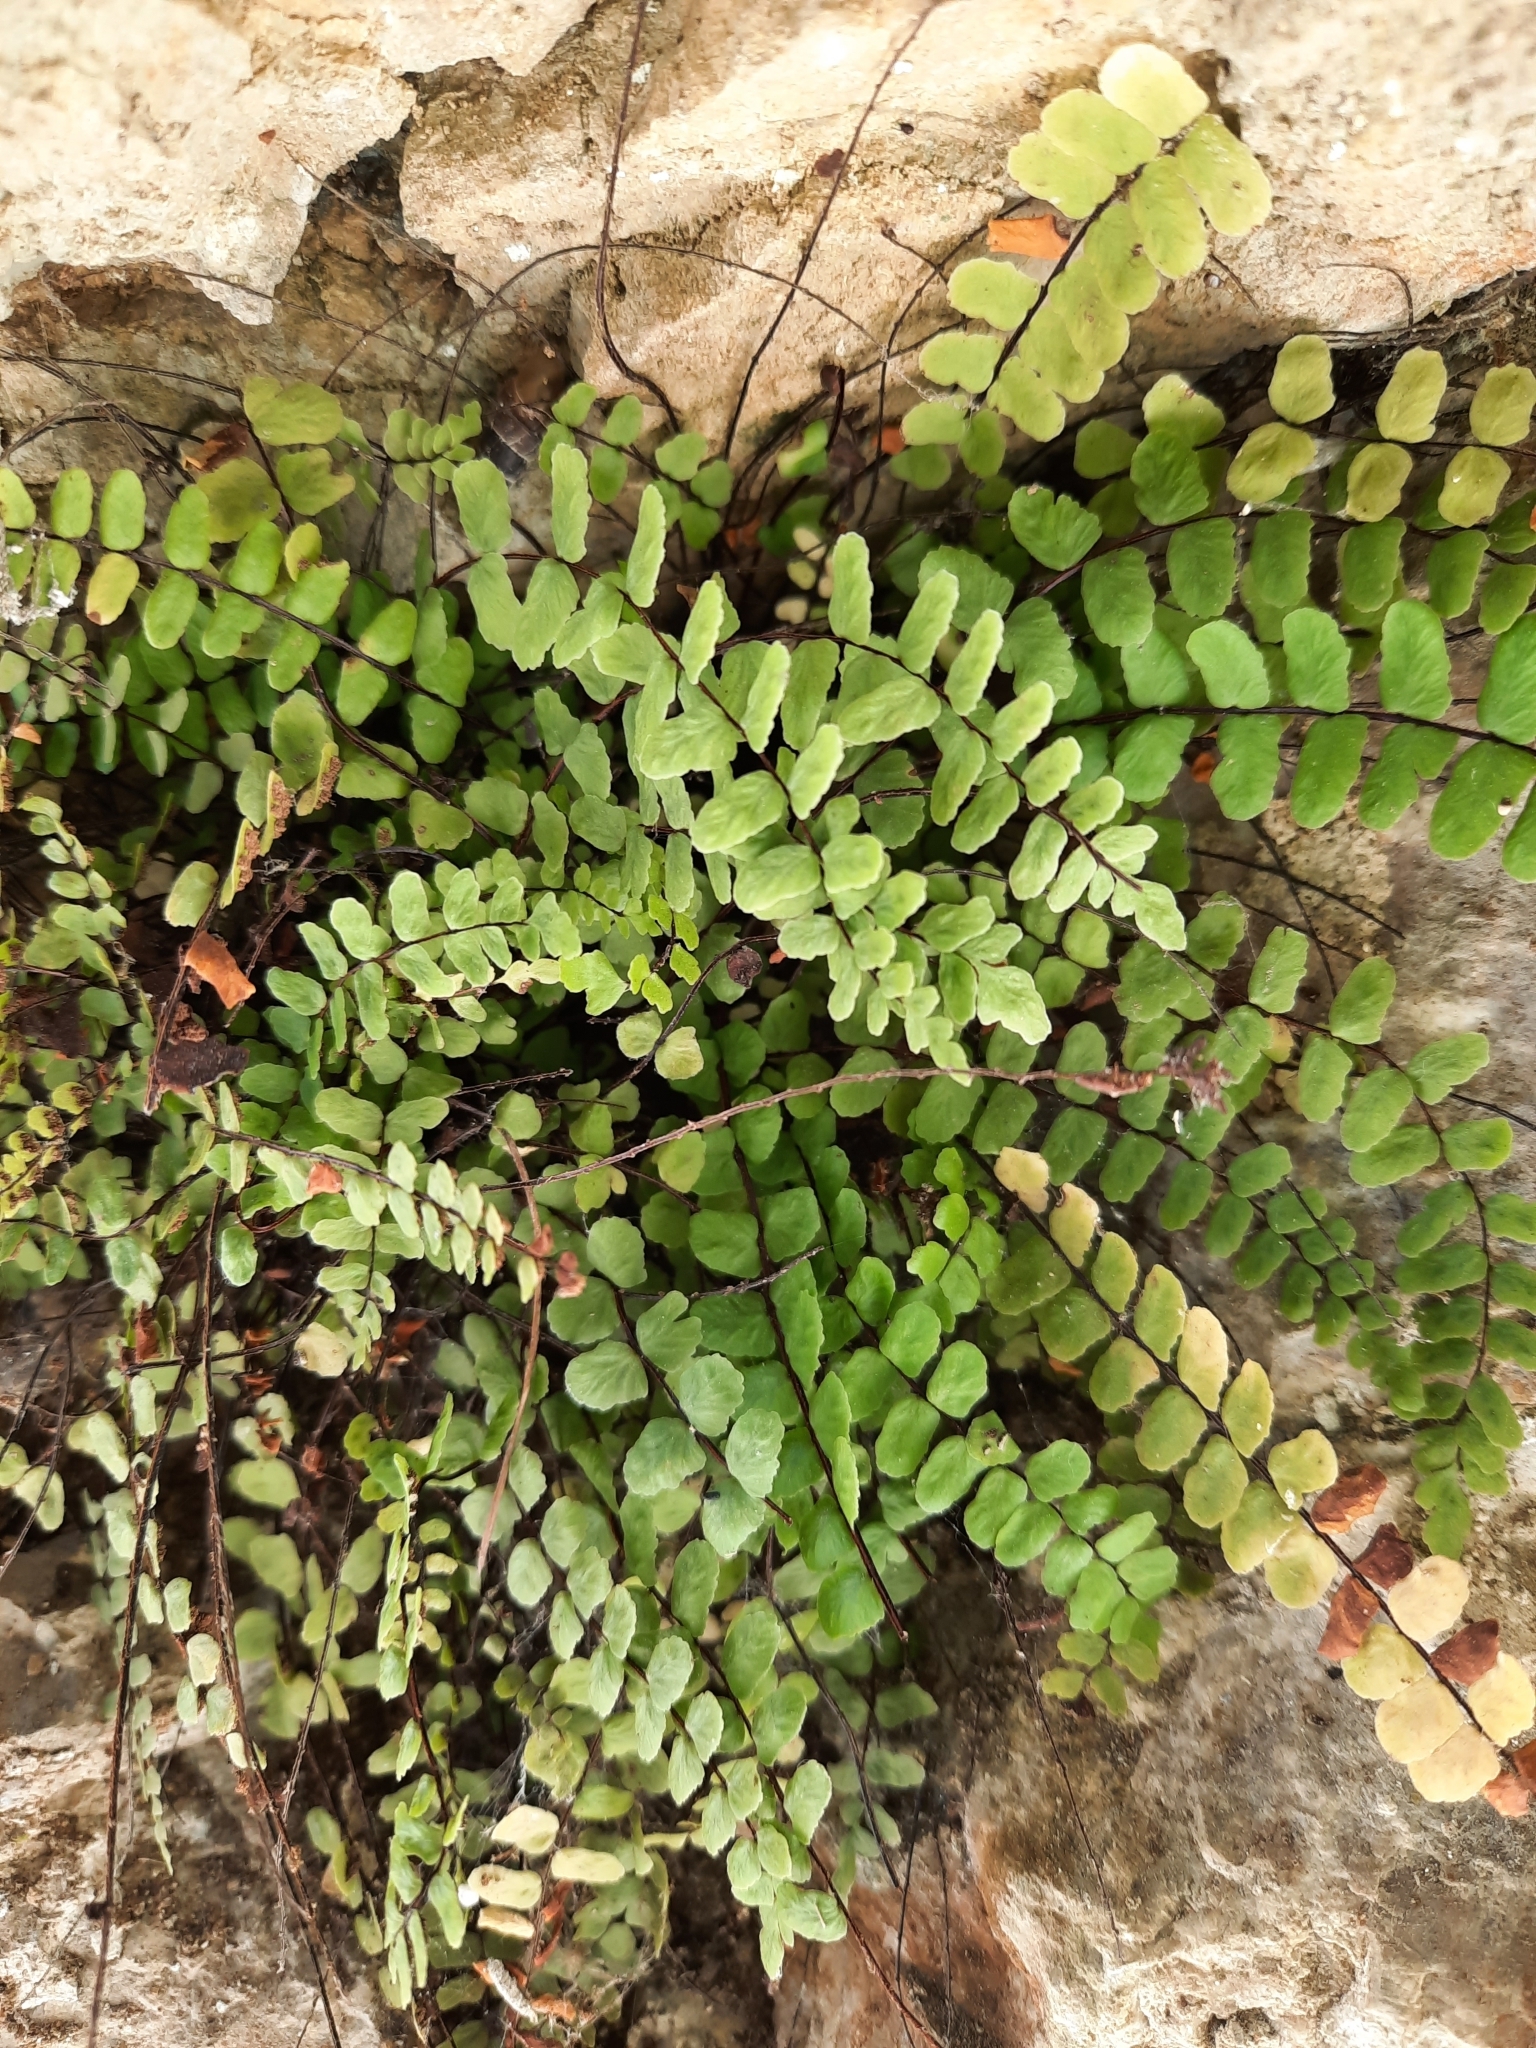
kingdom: Plantae
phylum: Tracheophyta
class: Polypodiopsida
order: Polypodiales
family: Aspleniaceae
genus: Asplenium
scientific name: Asplenium trichomanes
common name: Maidenhair spleenwort
